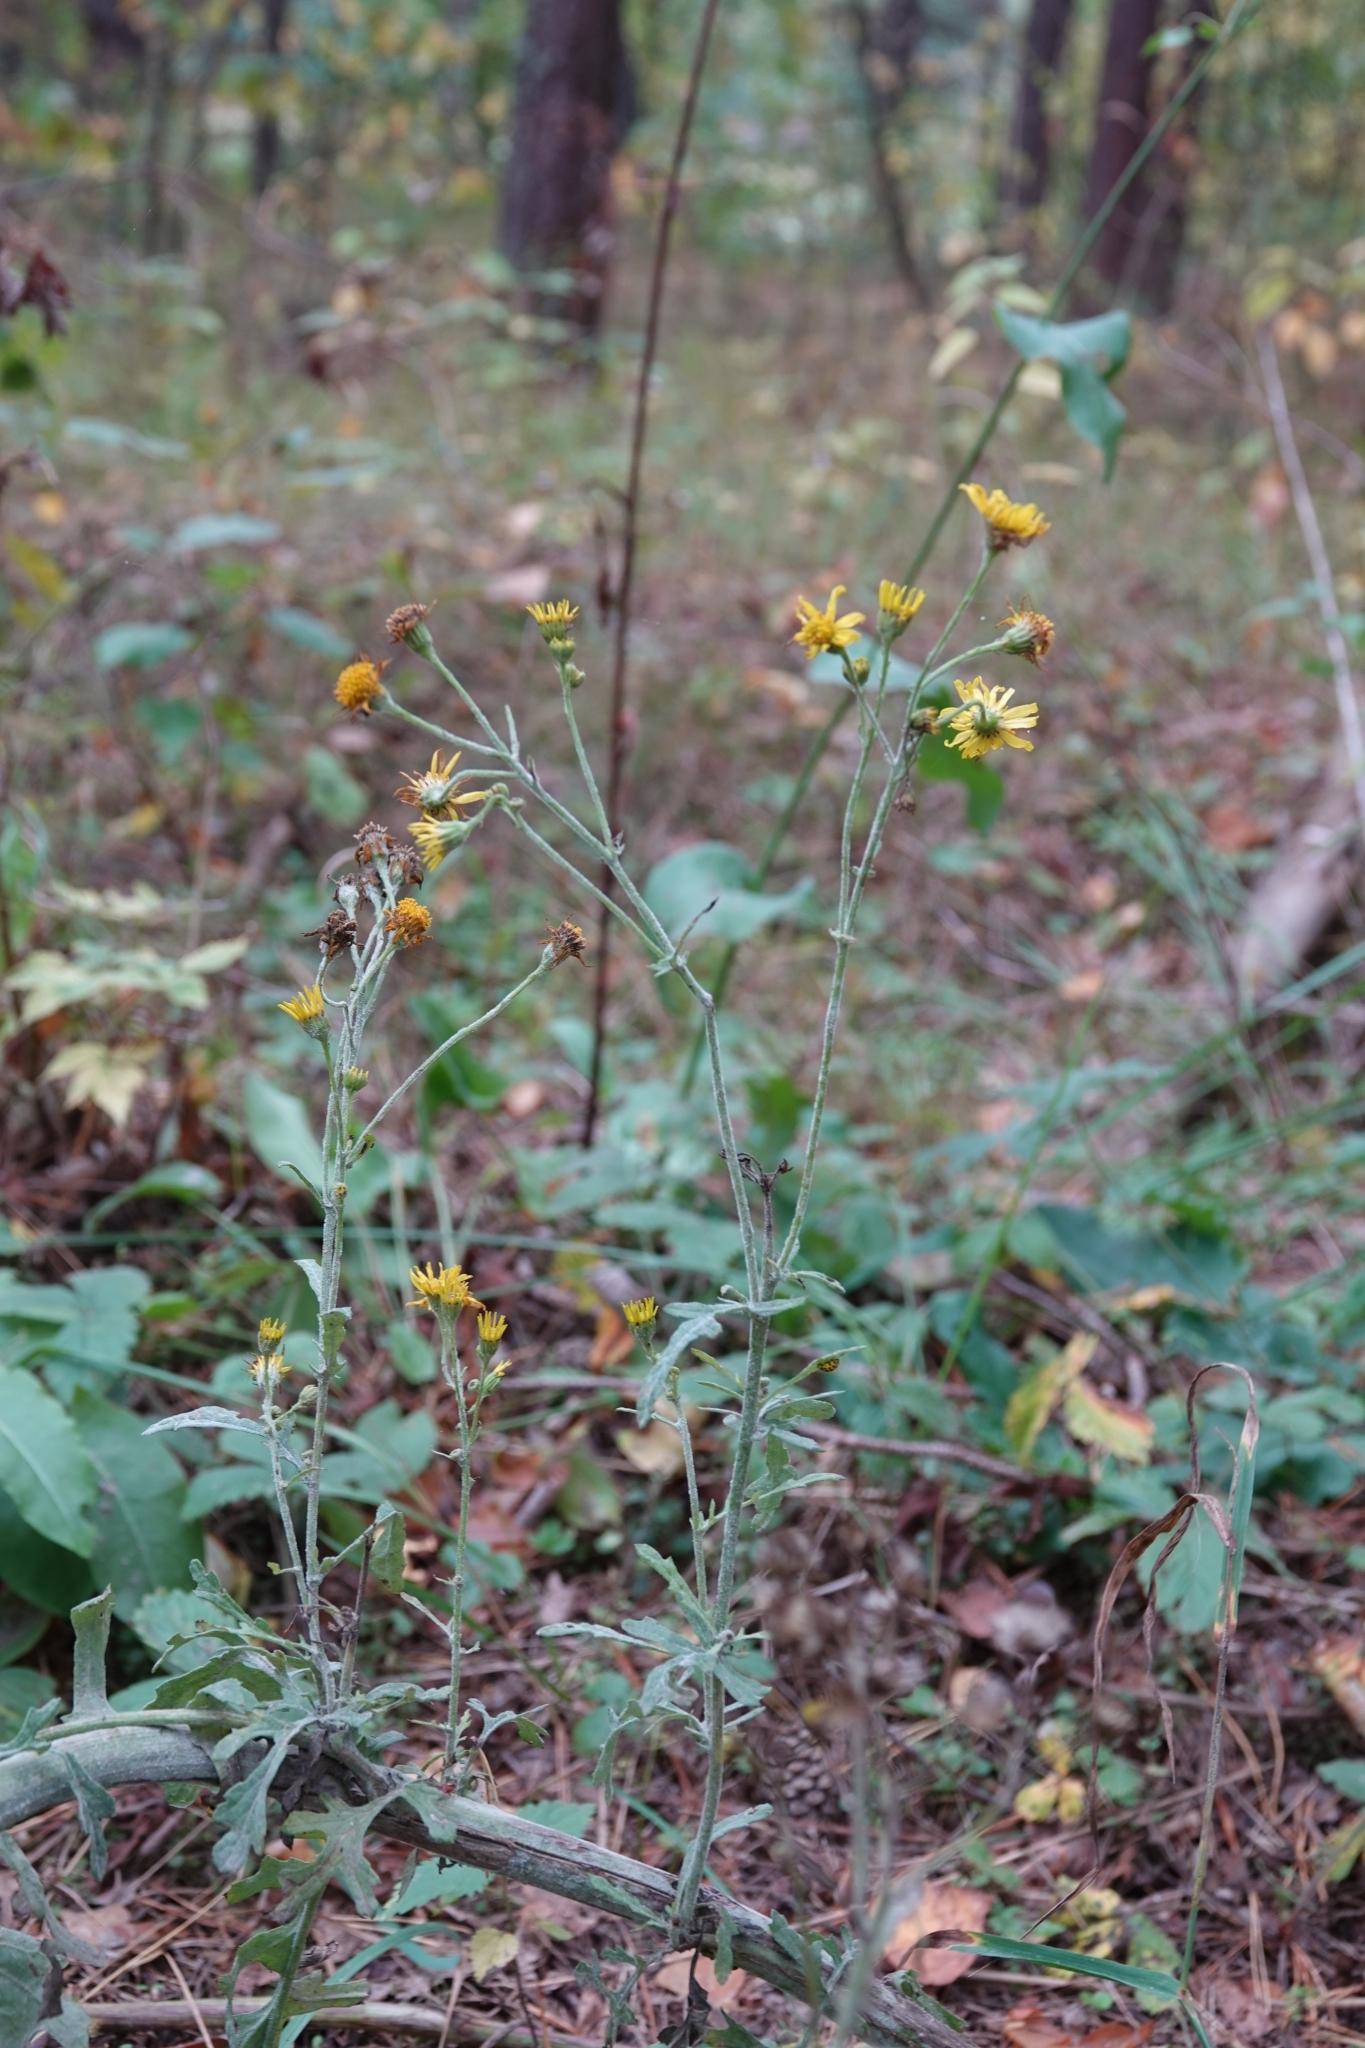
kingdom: Plantae
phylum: Tracheophyta
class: Magnoliopsida
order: Asterales
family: Asteraceae
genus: Jacobaea
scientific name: Jacobaea vulgaris
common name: Stinking willie
